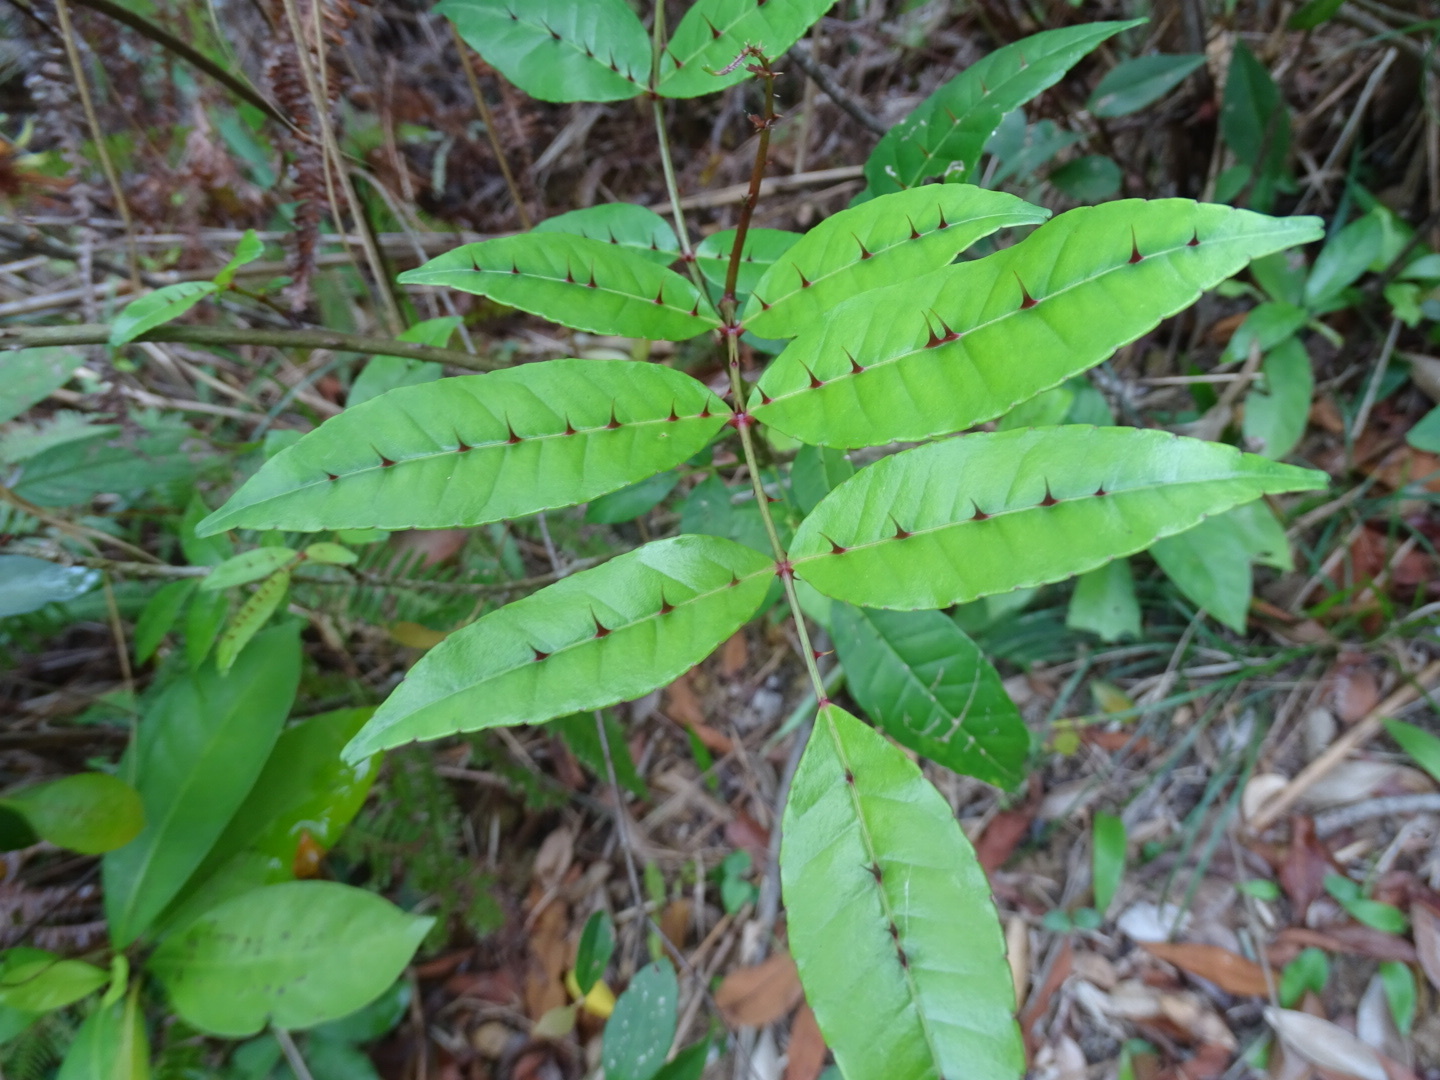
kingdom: Plantae
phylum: Tracheophyta
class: Magnoliopsida
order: Sapindales
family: Rutaceae
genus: Zanthoxylum
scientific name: Zanthoxylum nitidum
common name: Shiny-leaf prickly-ash
